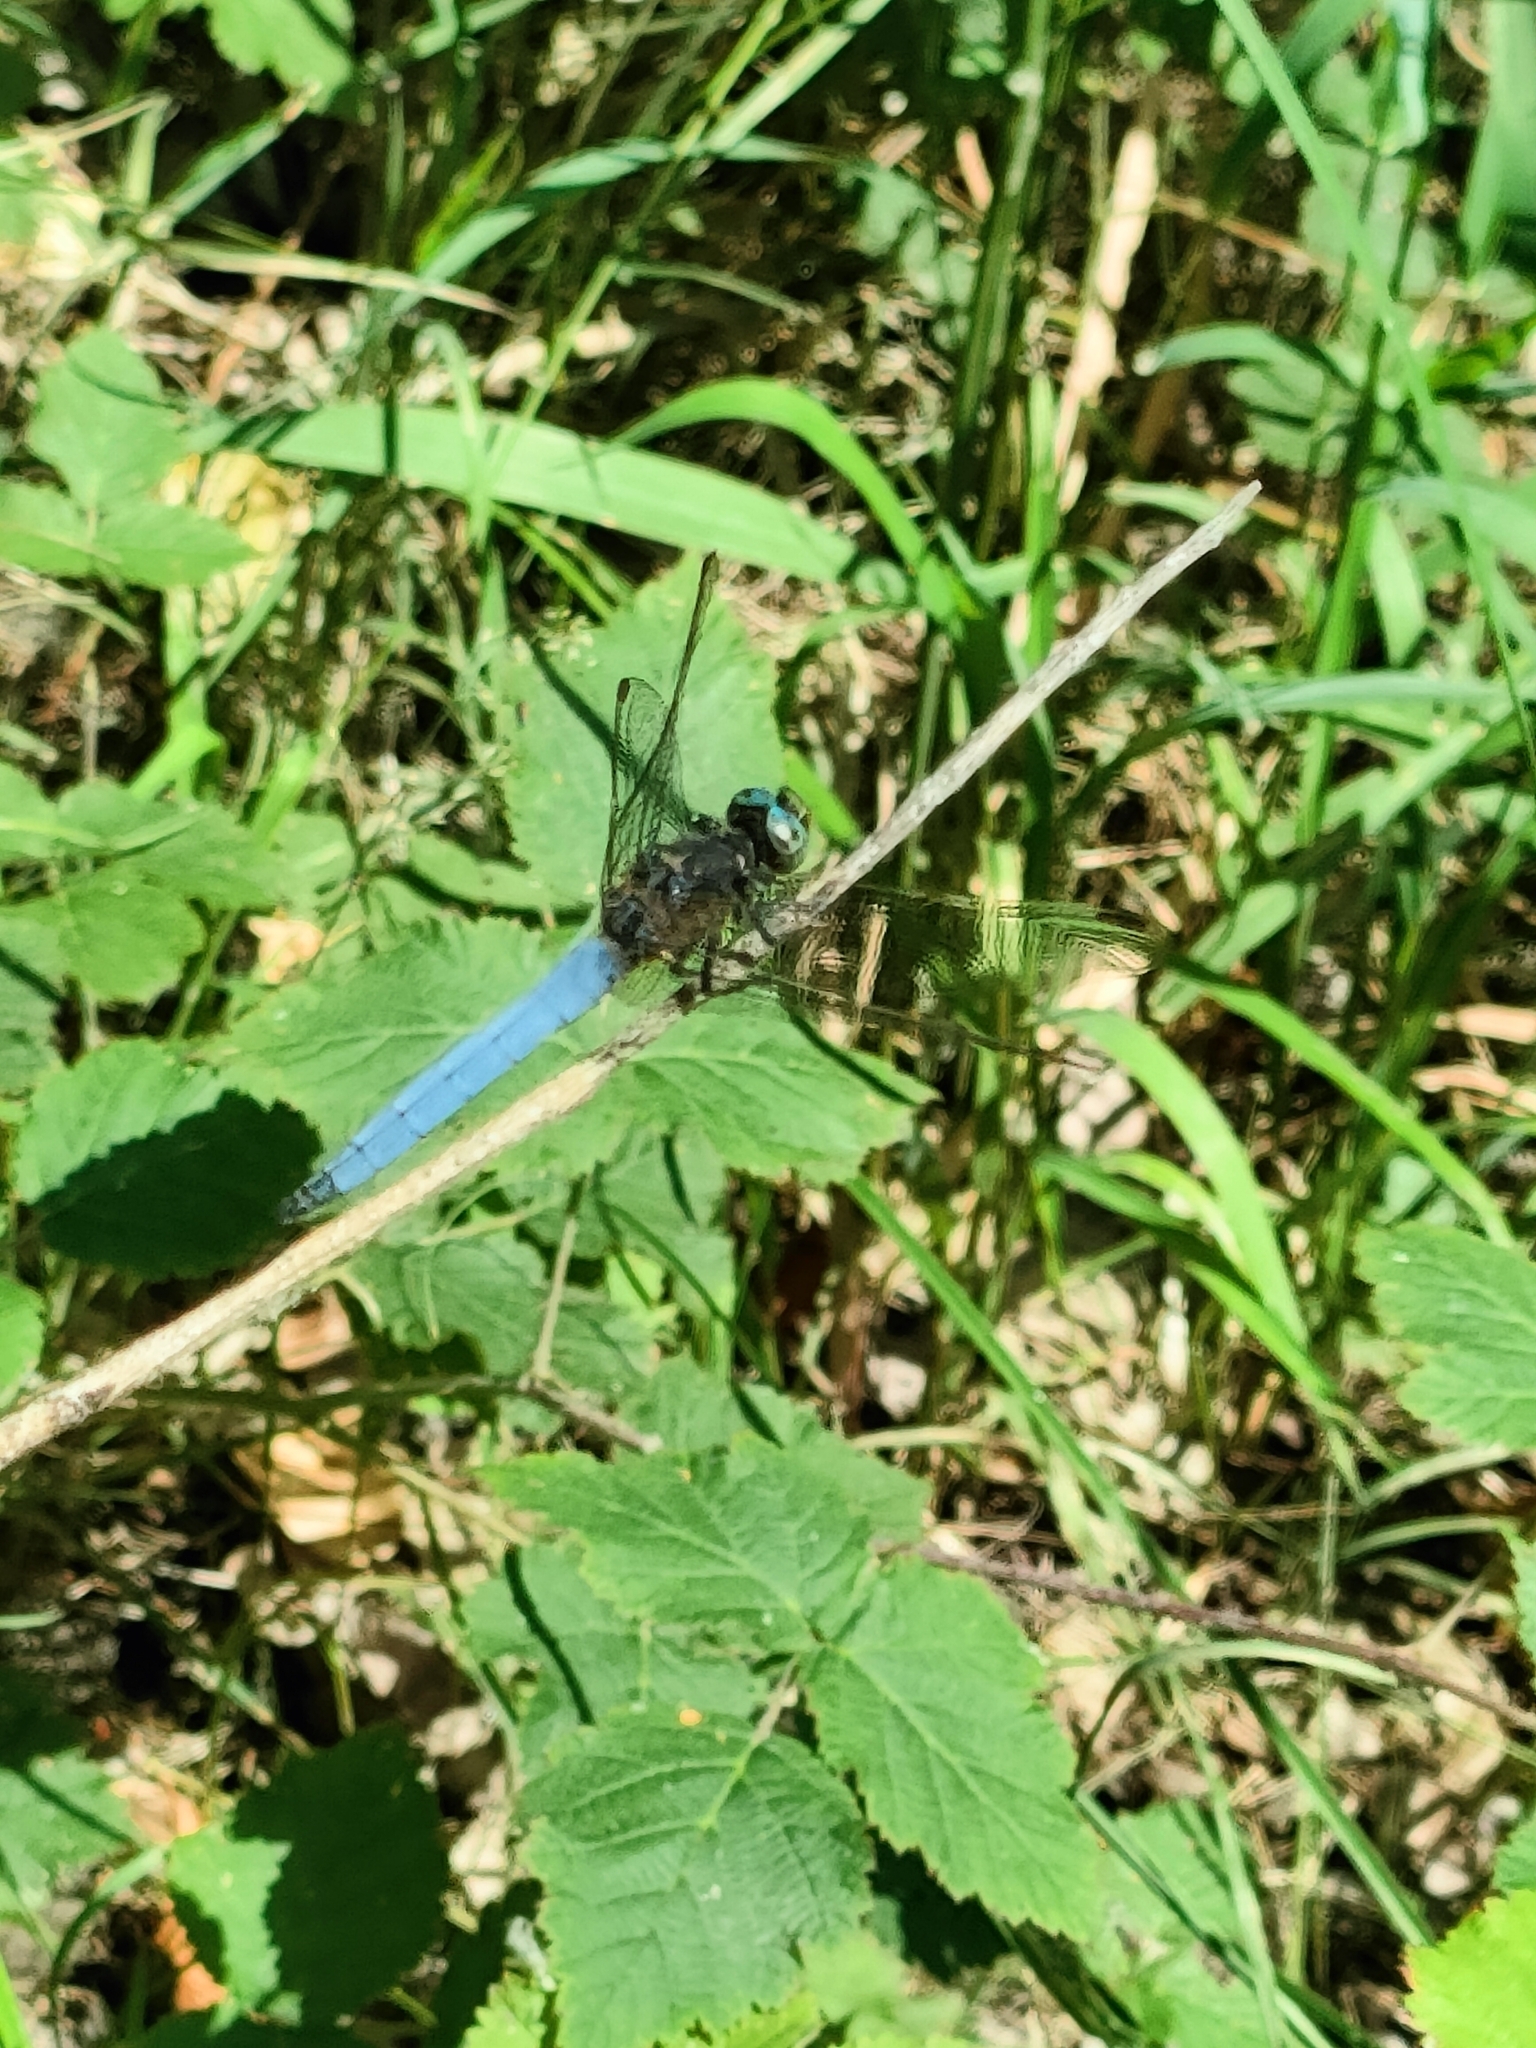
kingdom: Animalia
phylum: Arthropoda
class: Insecta
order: Odonata
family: Libellulidae
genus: Orthetrum
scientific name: Orthetrum coerulescens
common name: Keeled skimmer
